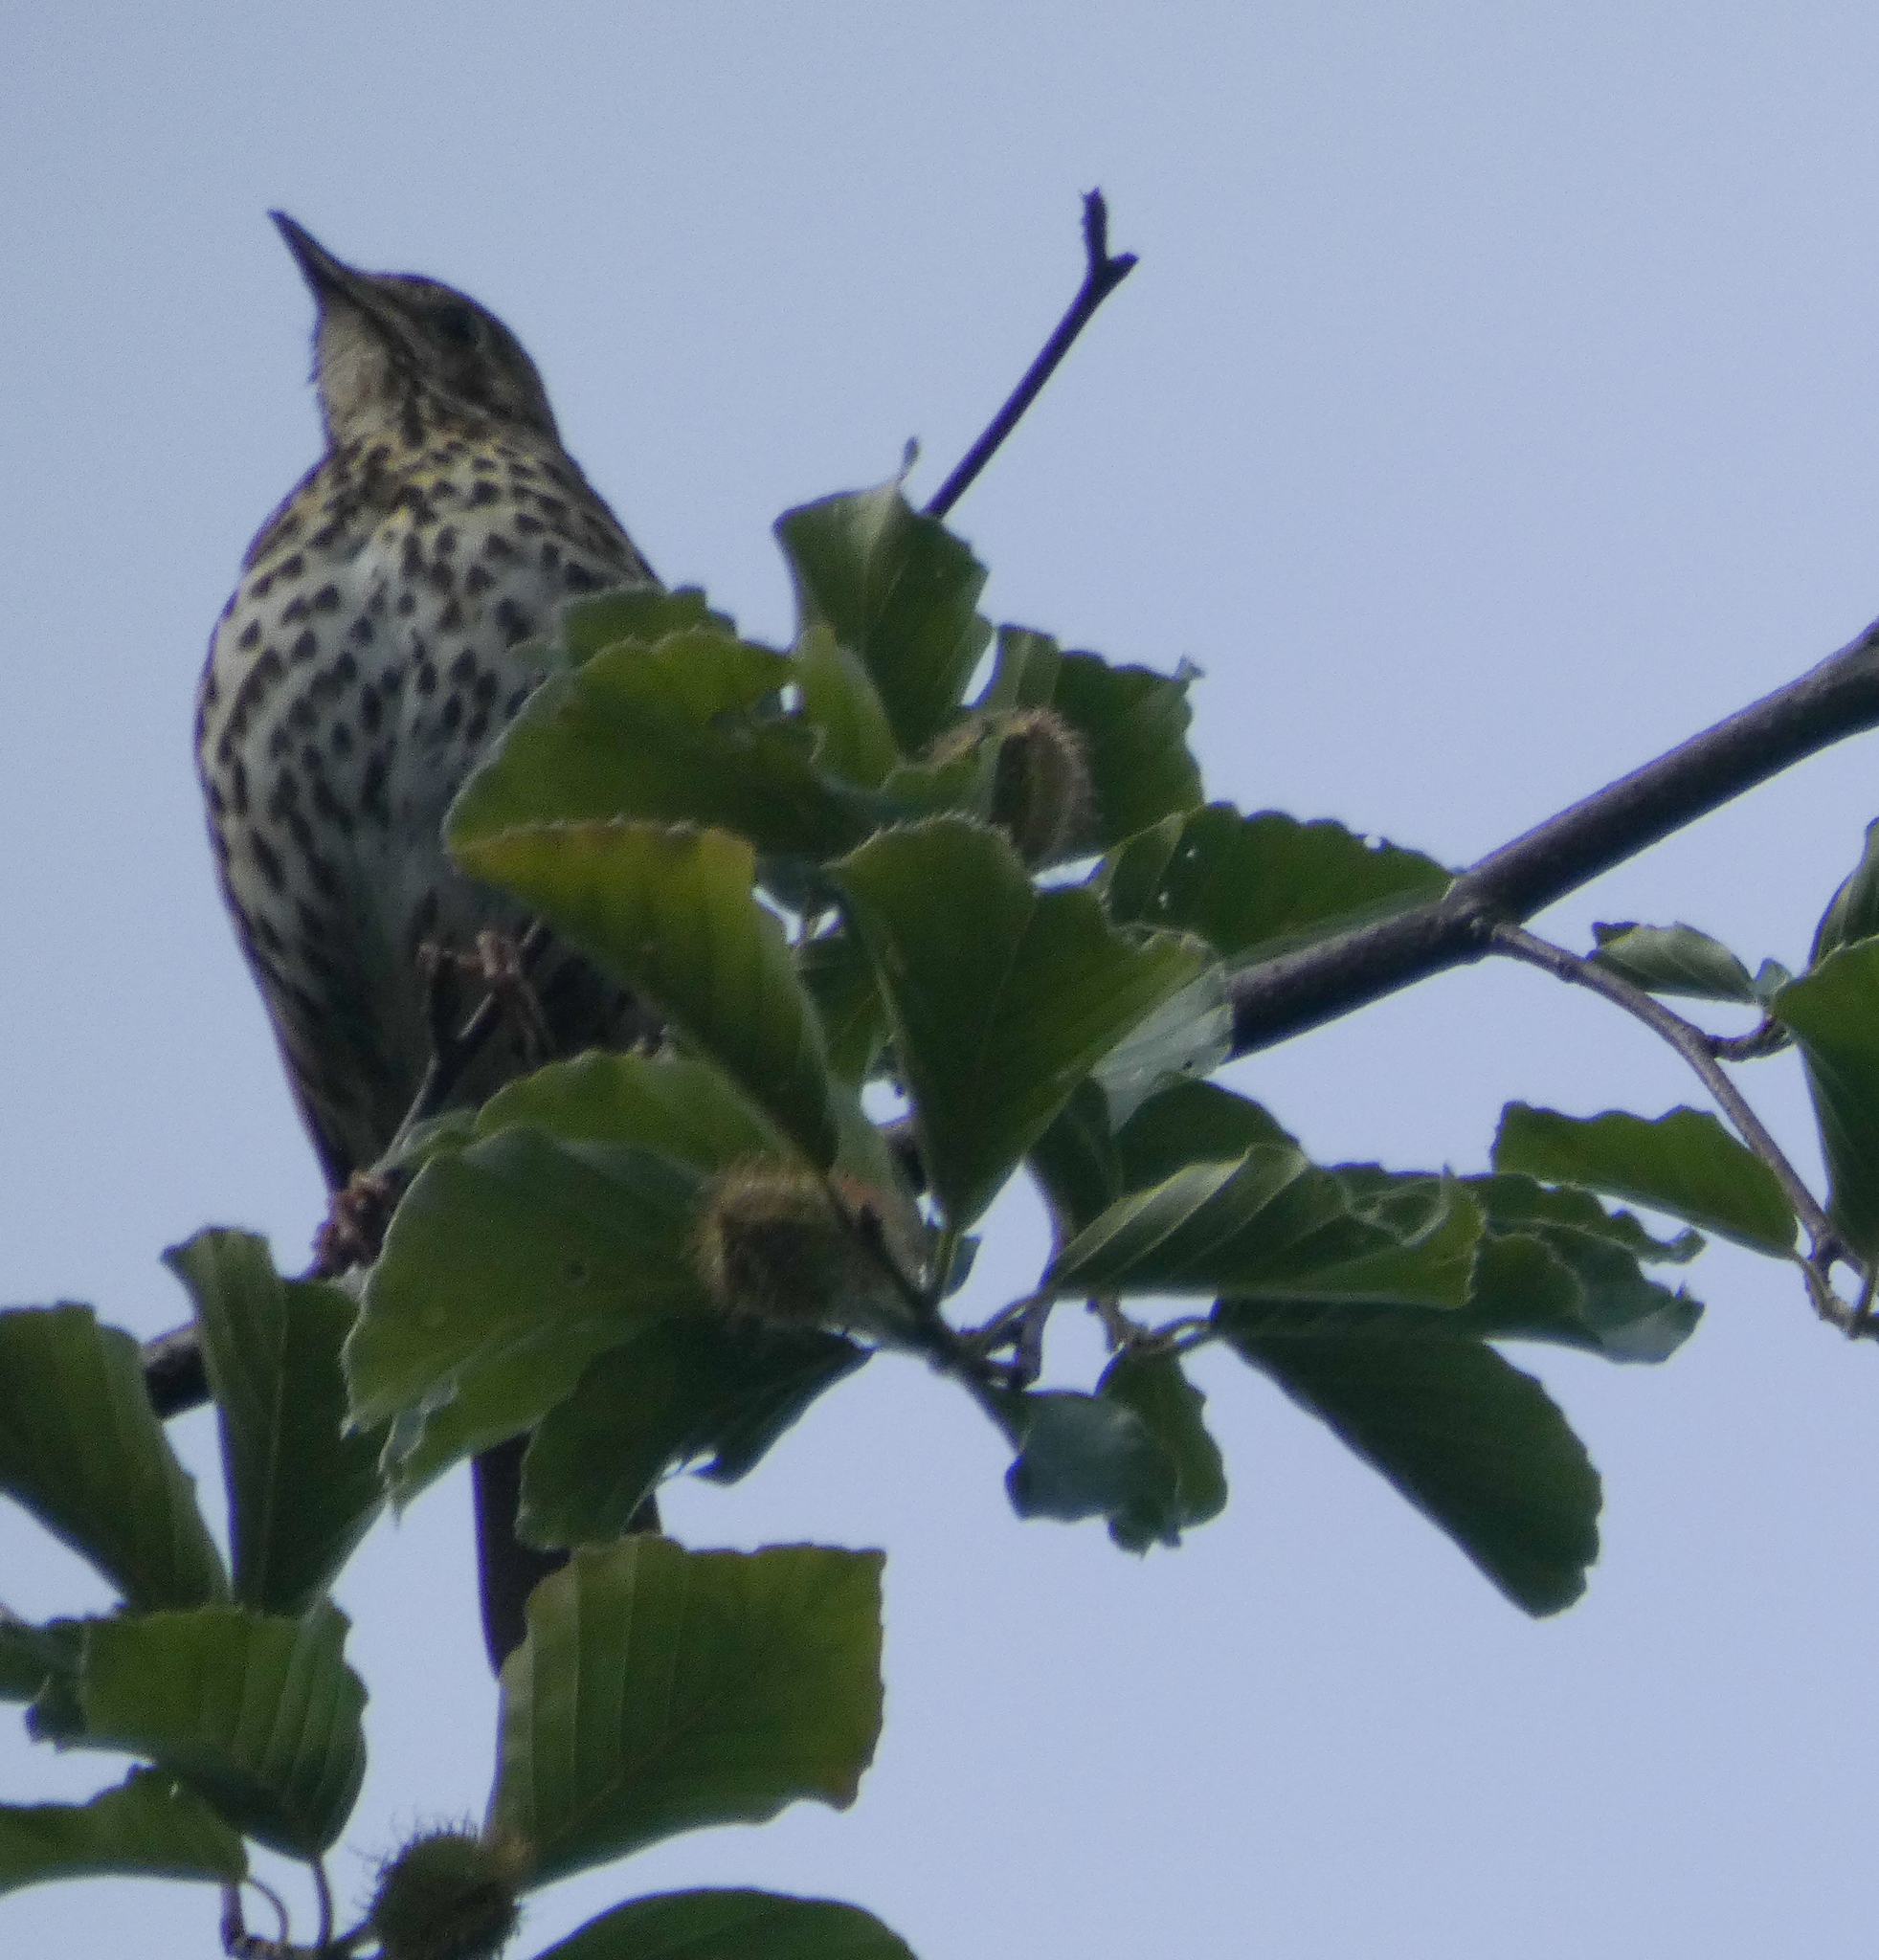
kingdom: Animalia
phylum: Chordata
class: Aves
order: Passeriformes
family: Turdidae
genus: Turdus
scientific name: Turdus philomelos
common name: Song thrush
